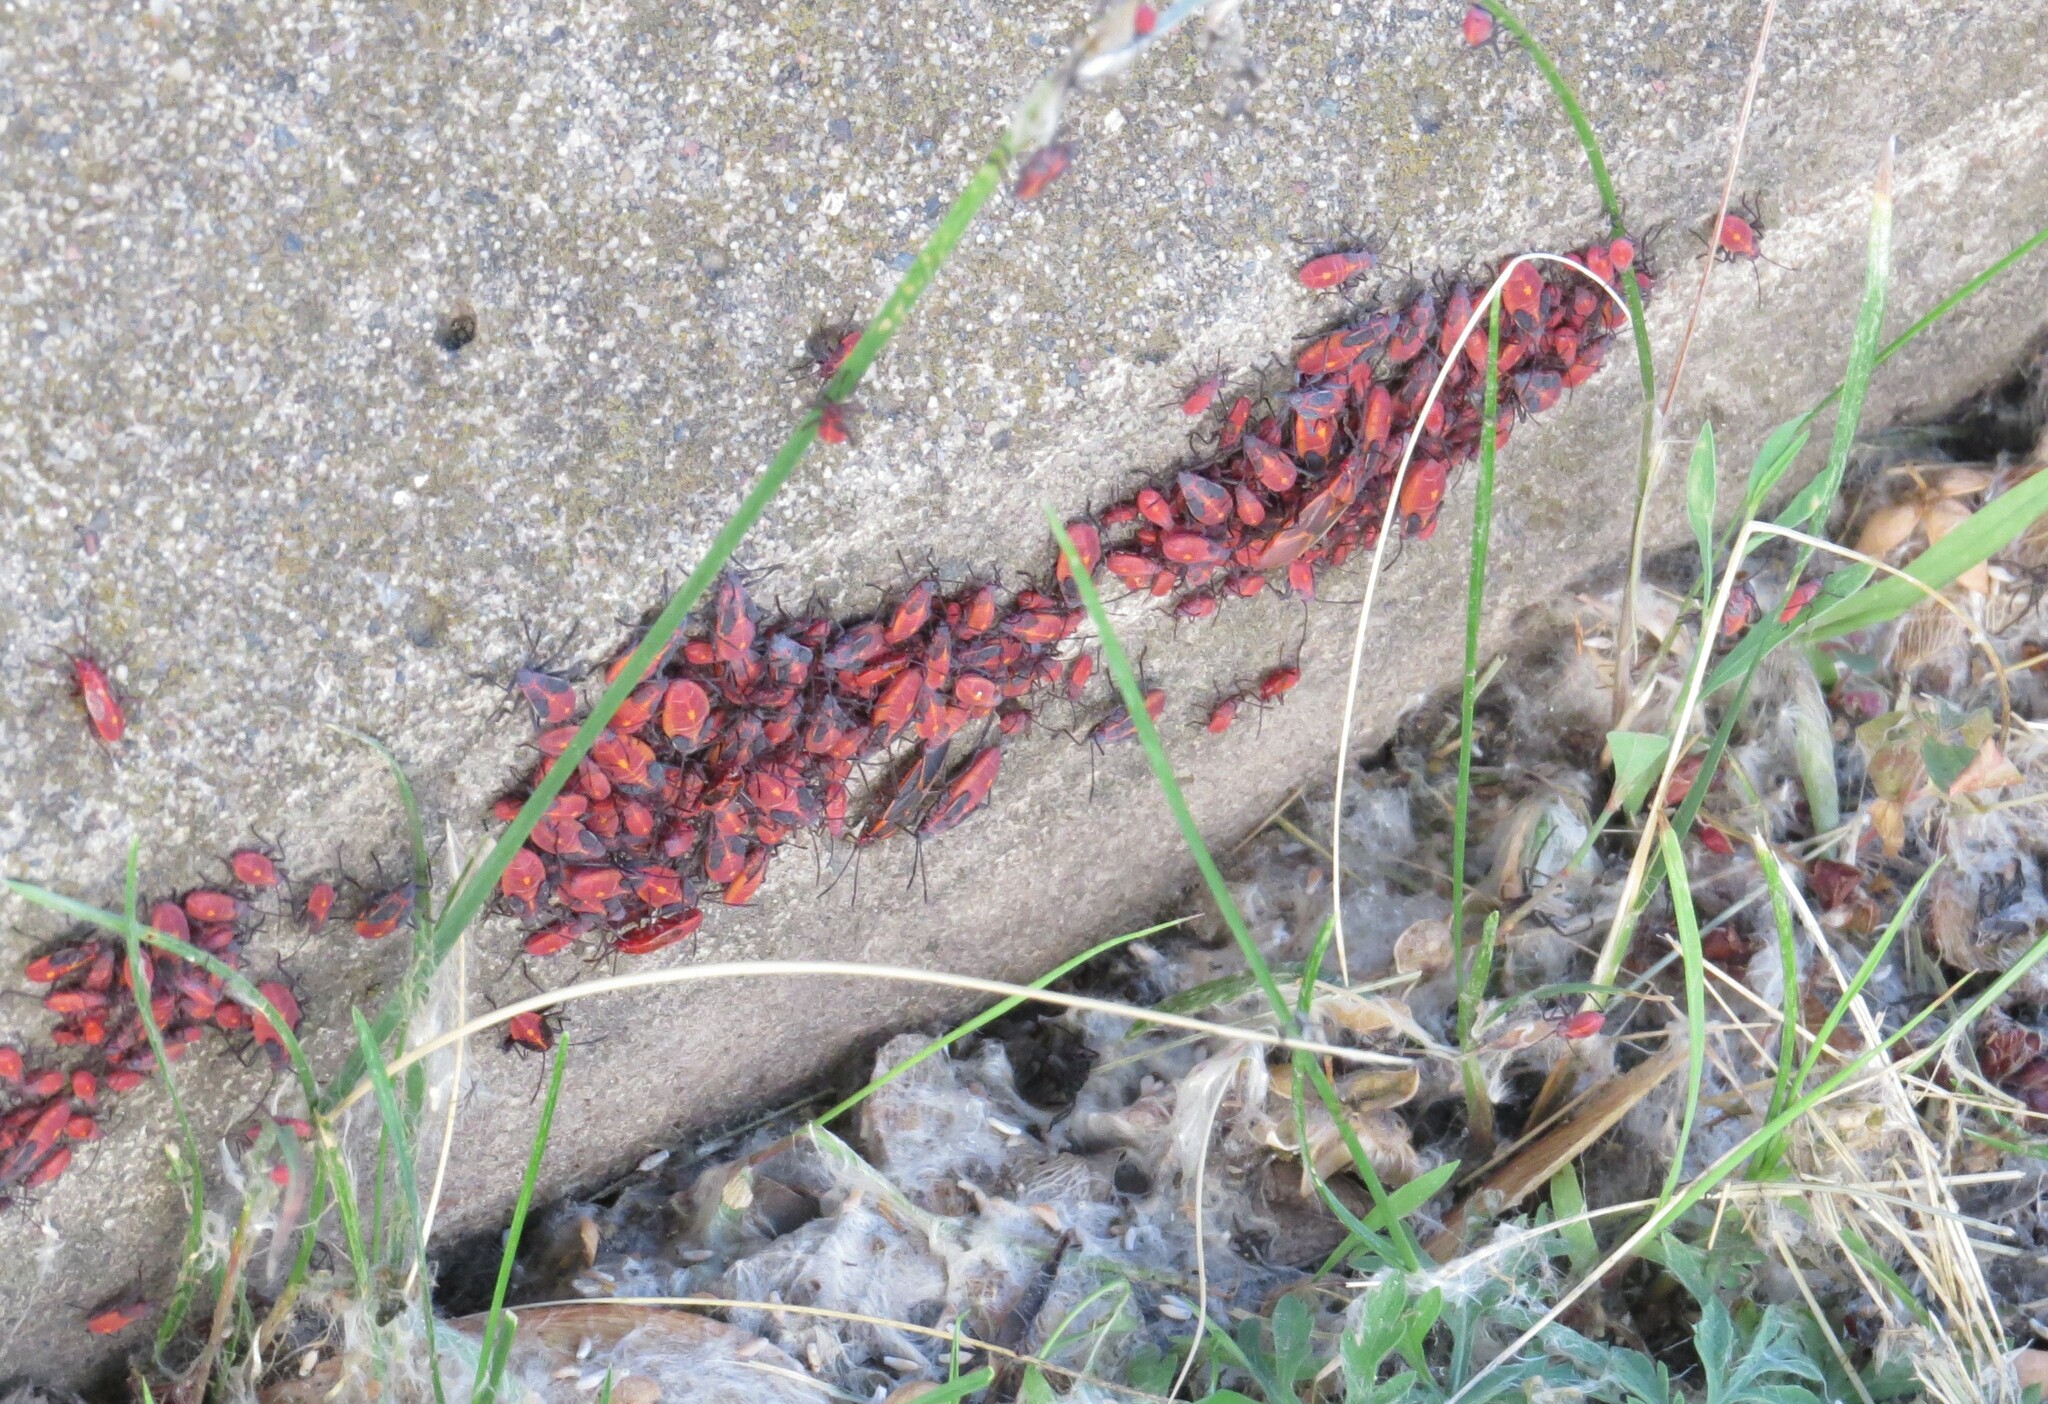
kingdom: Animalia
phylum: Arthropoda
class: Insecta
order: Hemiptera
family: Rhopalidae
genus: Boisea
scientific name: Boisea trivittata
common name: Boxelder bug
